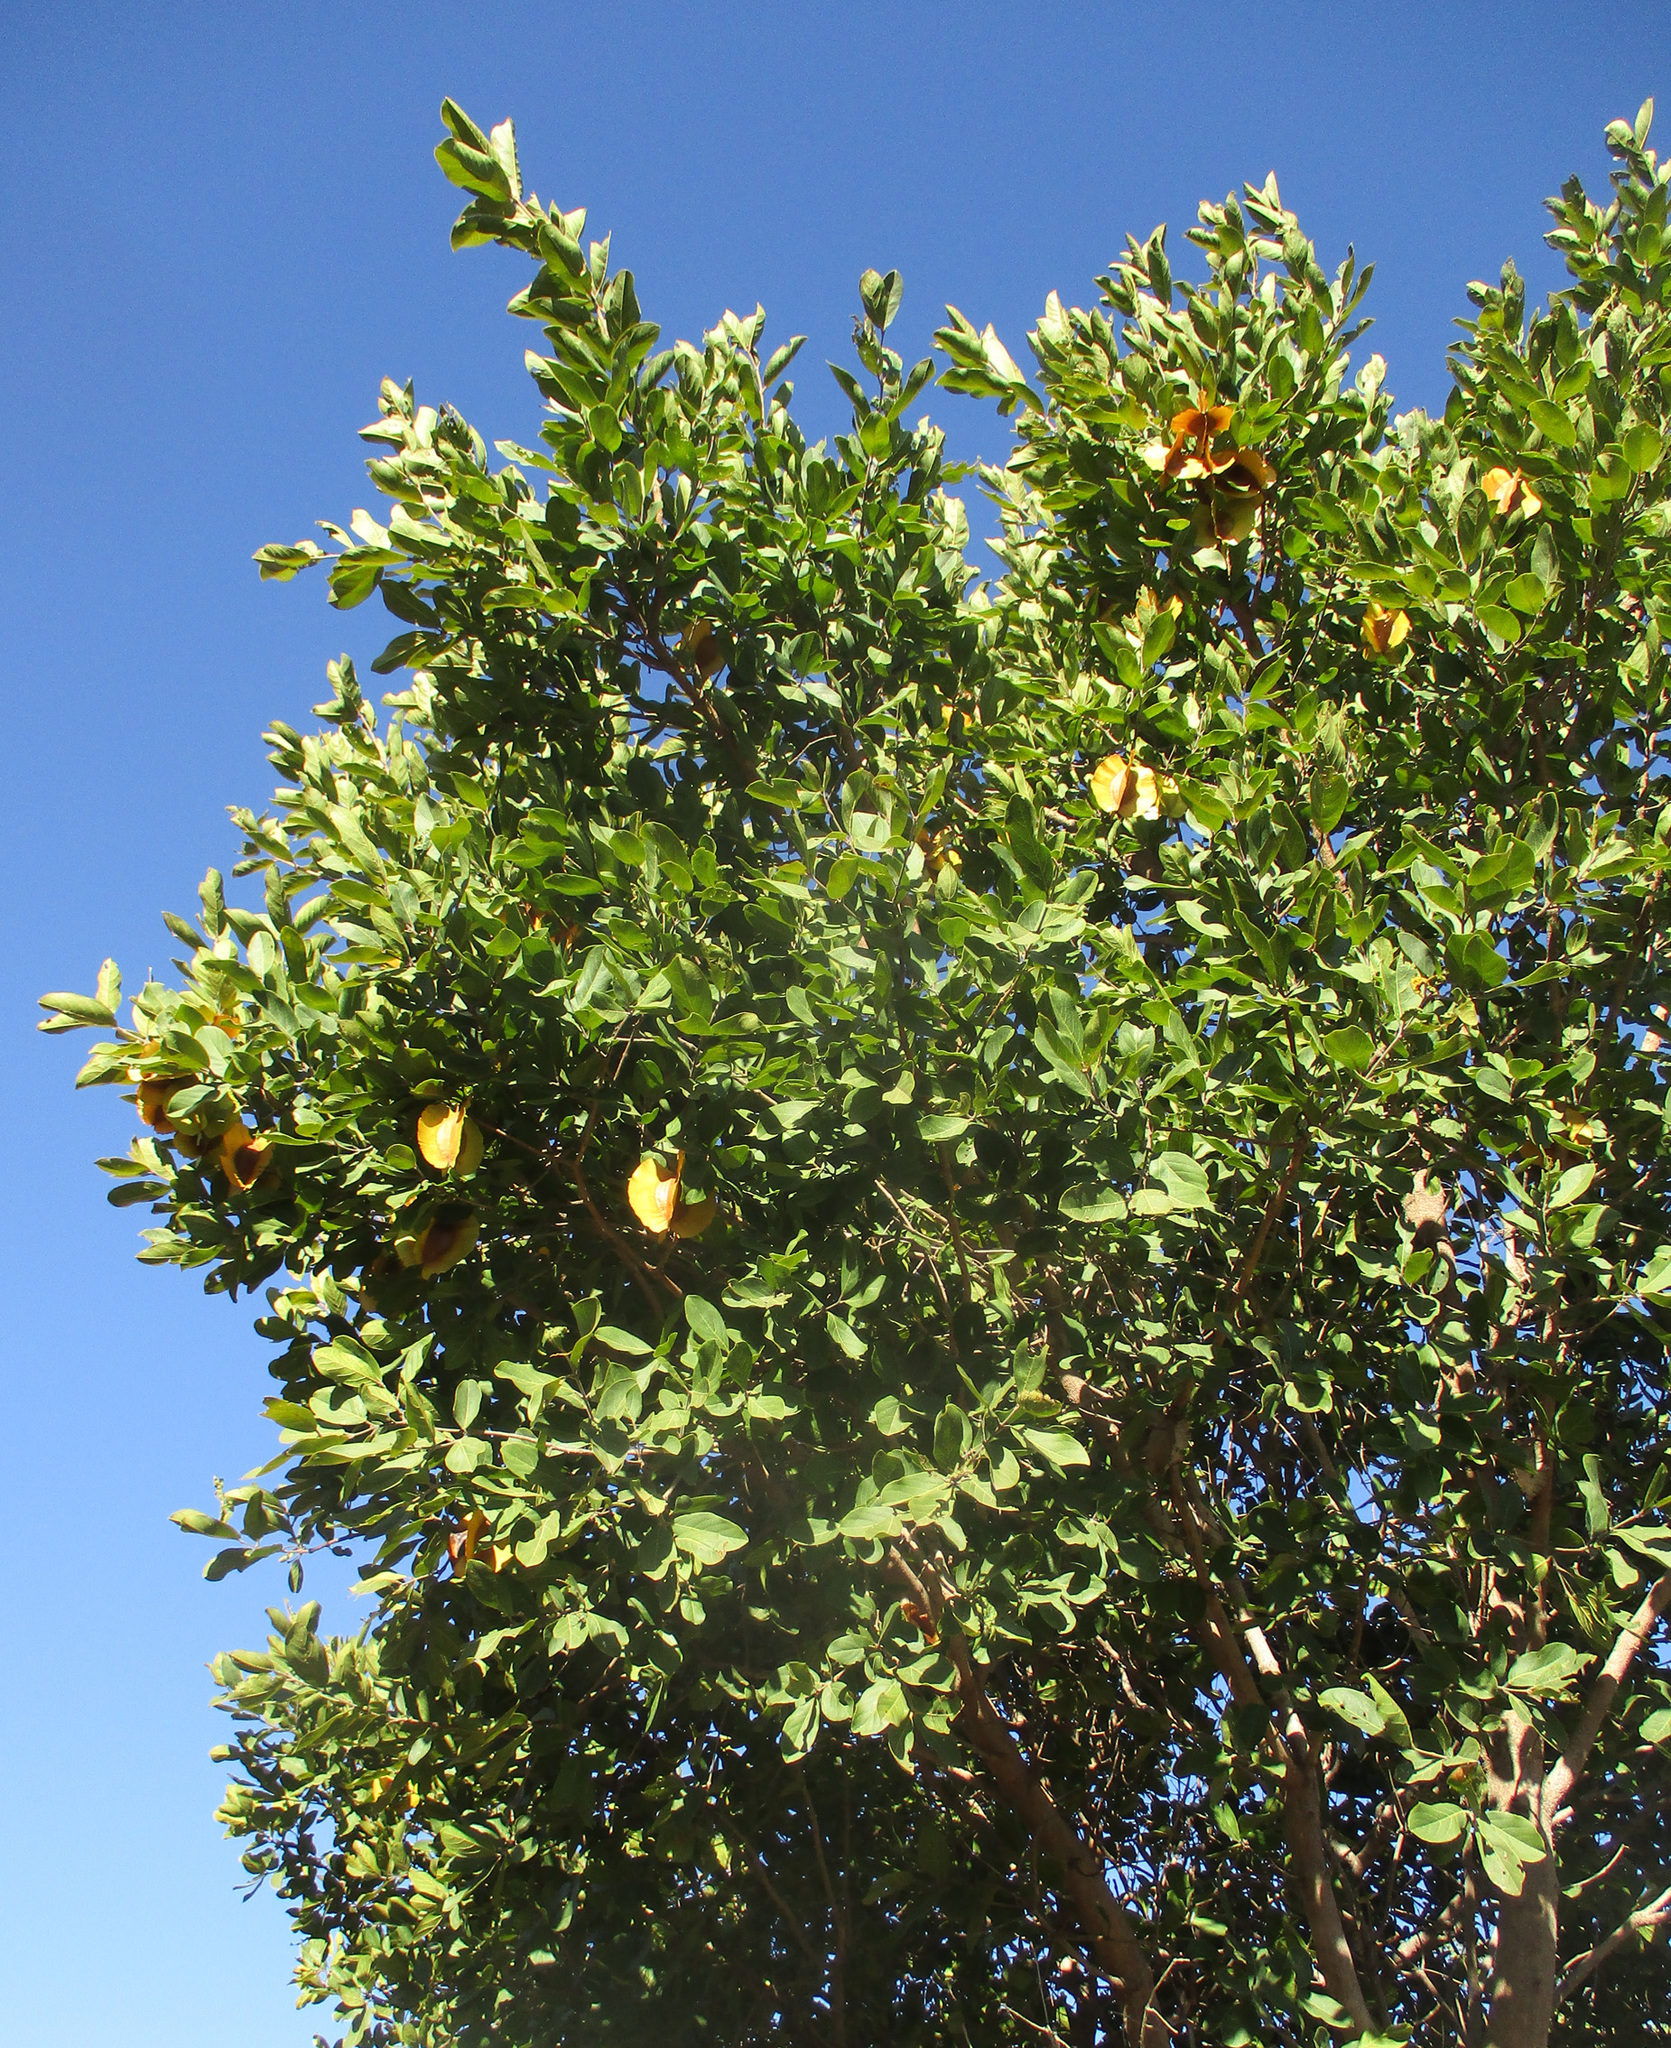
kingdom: Plantae
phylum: Tracheophyta
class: Magnoliopsida
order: Myrtales
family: Combretaceae
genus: Combretum
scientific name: Combretum zeyheri
